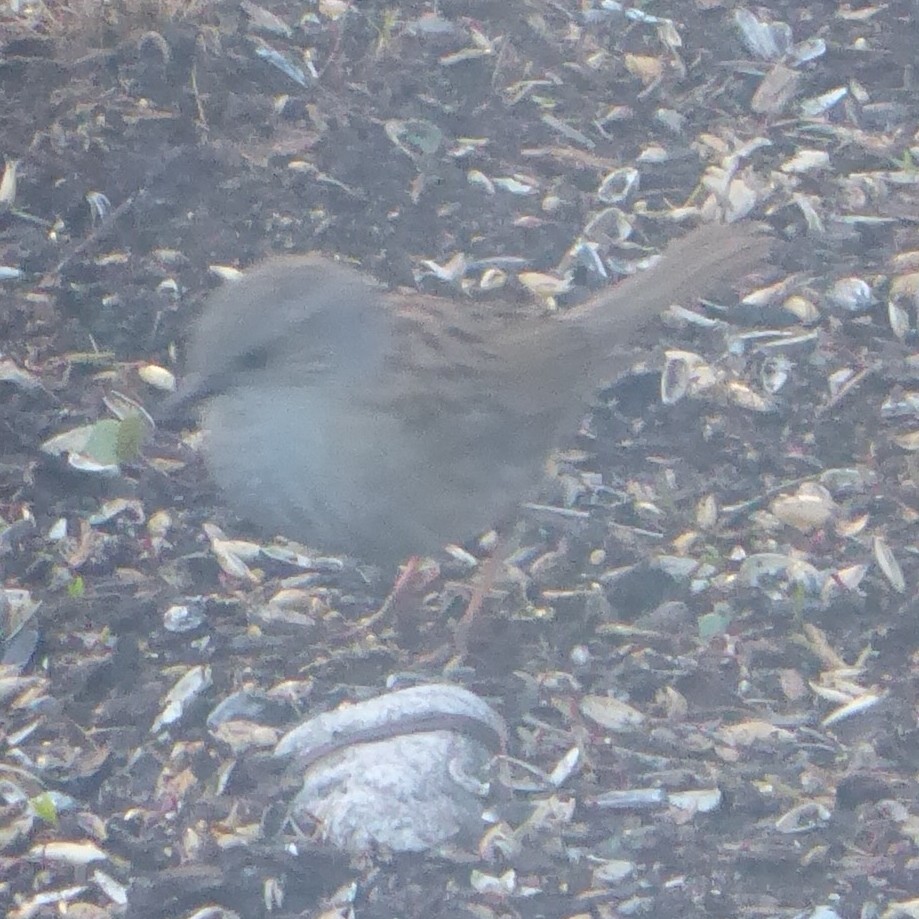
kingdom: Animalia
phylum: Chordata
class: Aves
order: Passeriformes
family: Prunellidae
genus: Prunella
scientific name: Prunella modularis
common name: Dunnock
